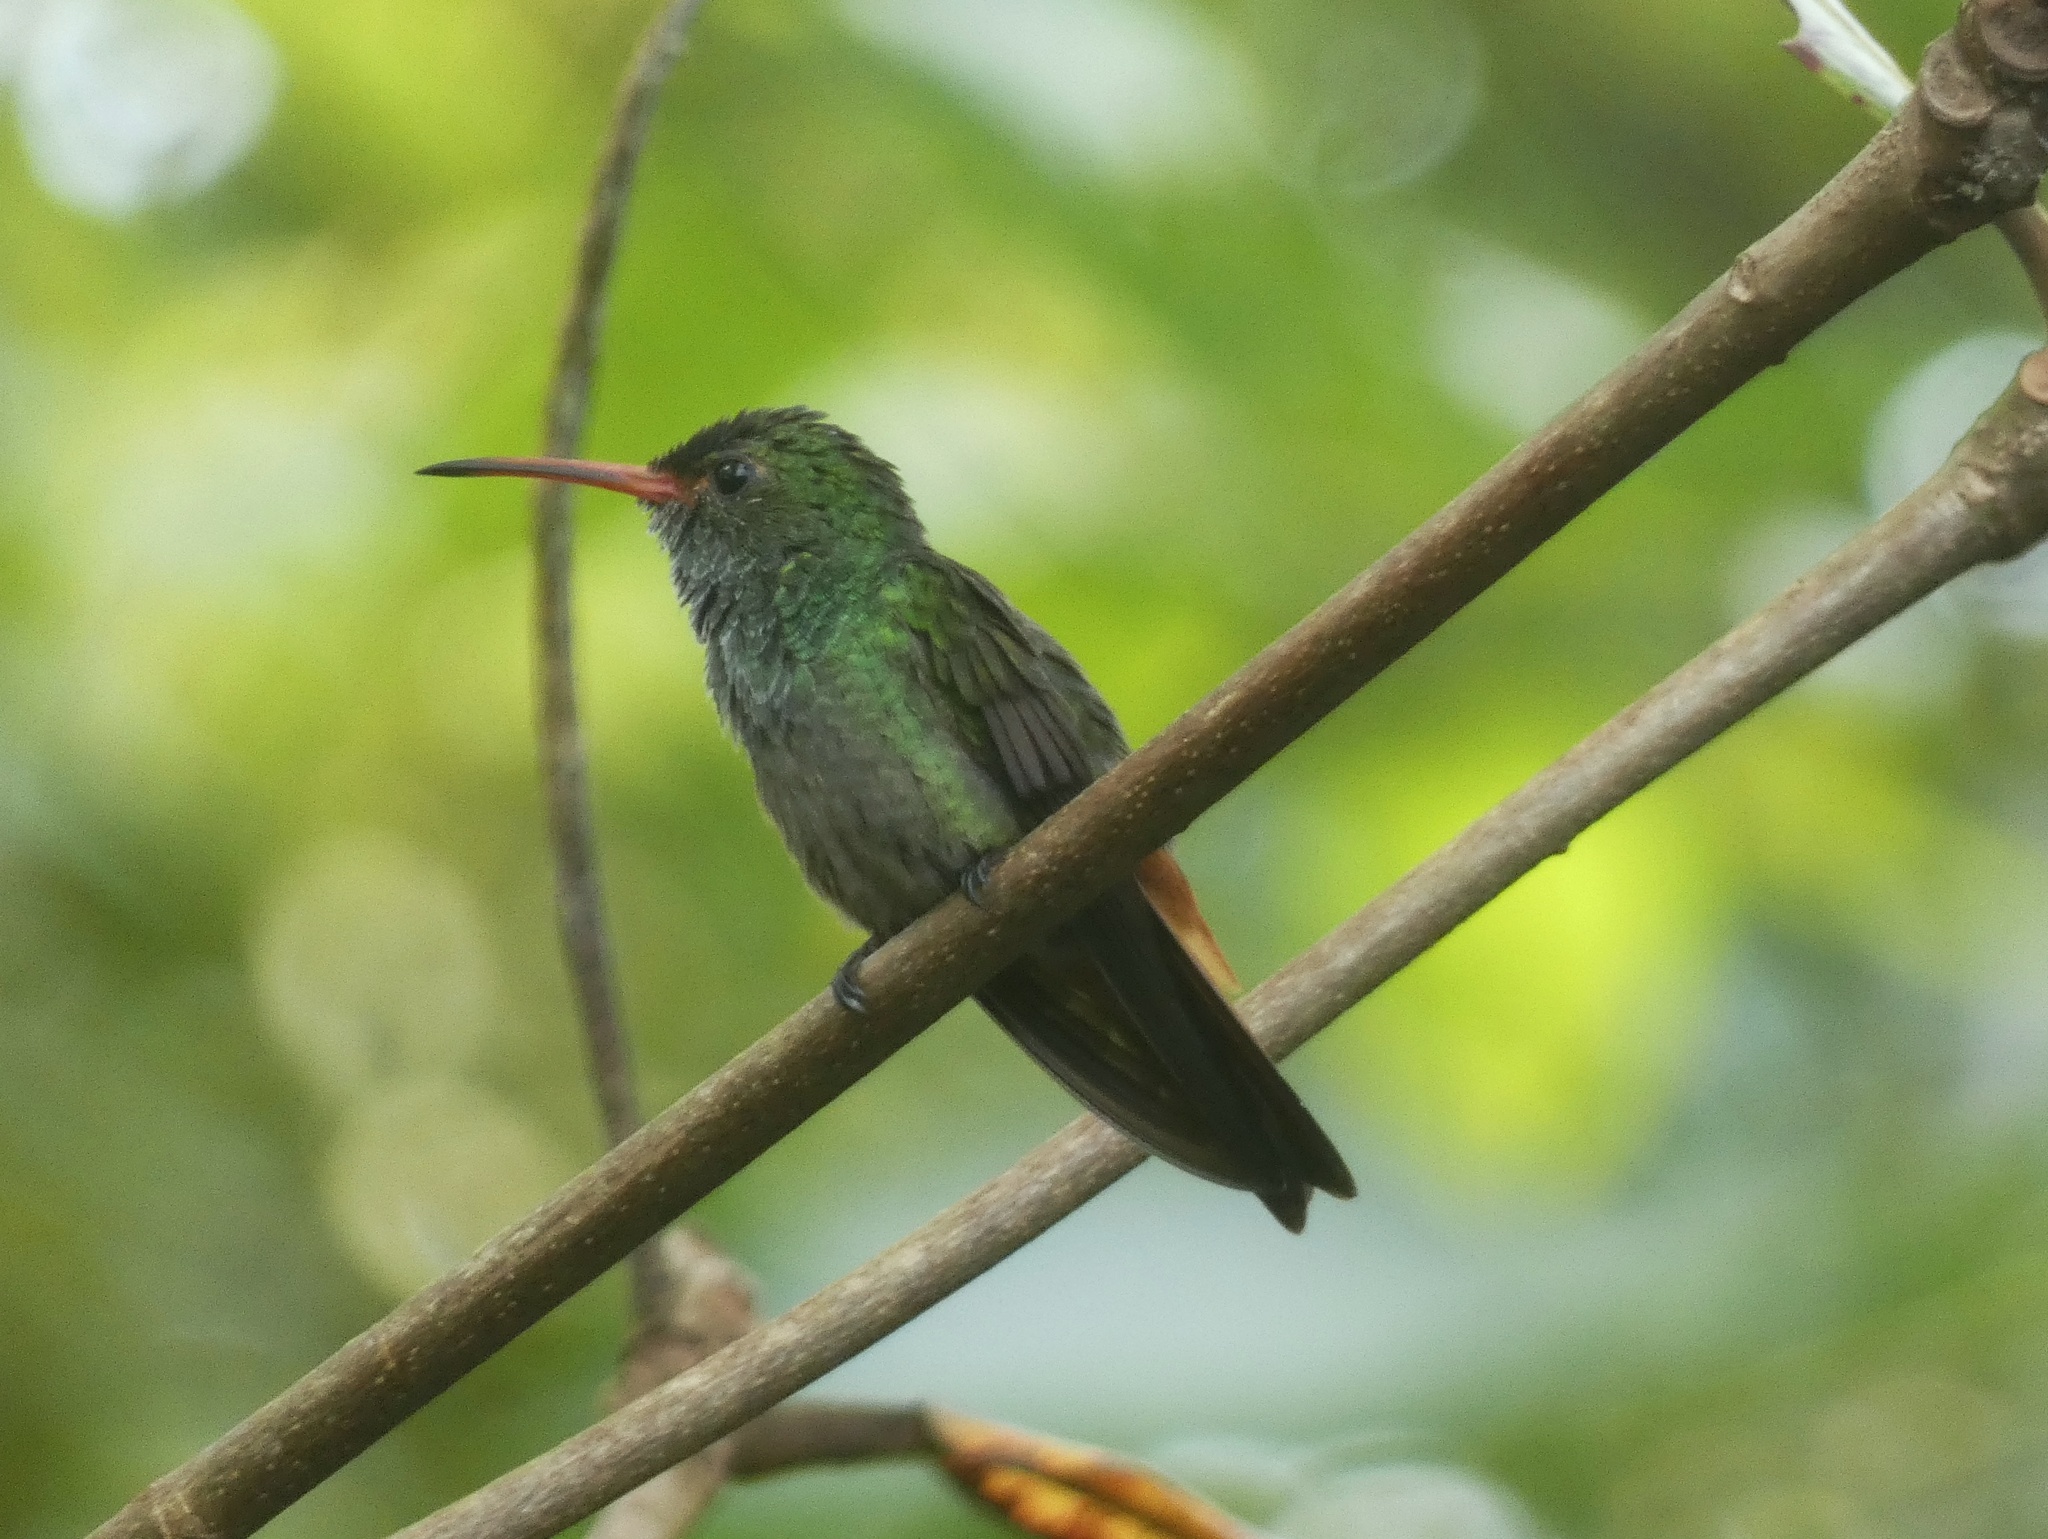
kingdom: Animalia
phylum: Chordata
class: Aves
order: Apodiformes
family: Trochilidae
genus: Amazilia
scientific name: Amazilia tzacatl
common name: Rufous-tailed hummingbird
